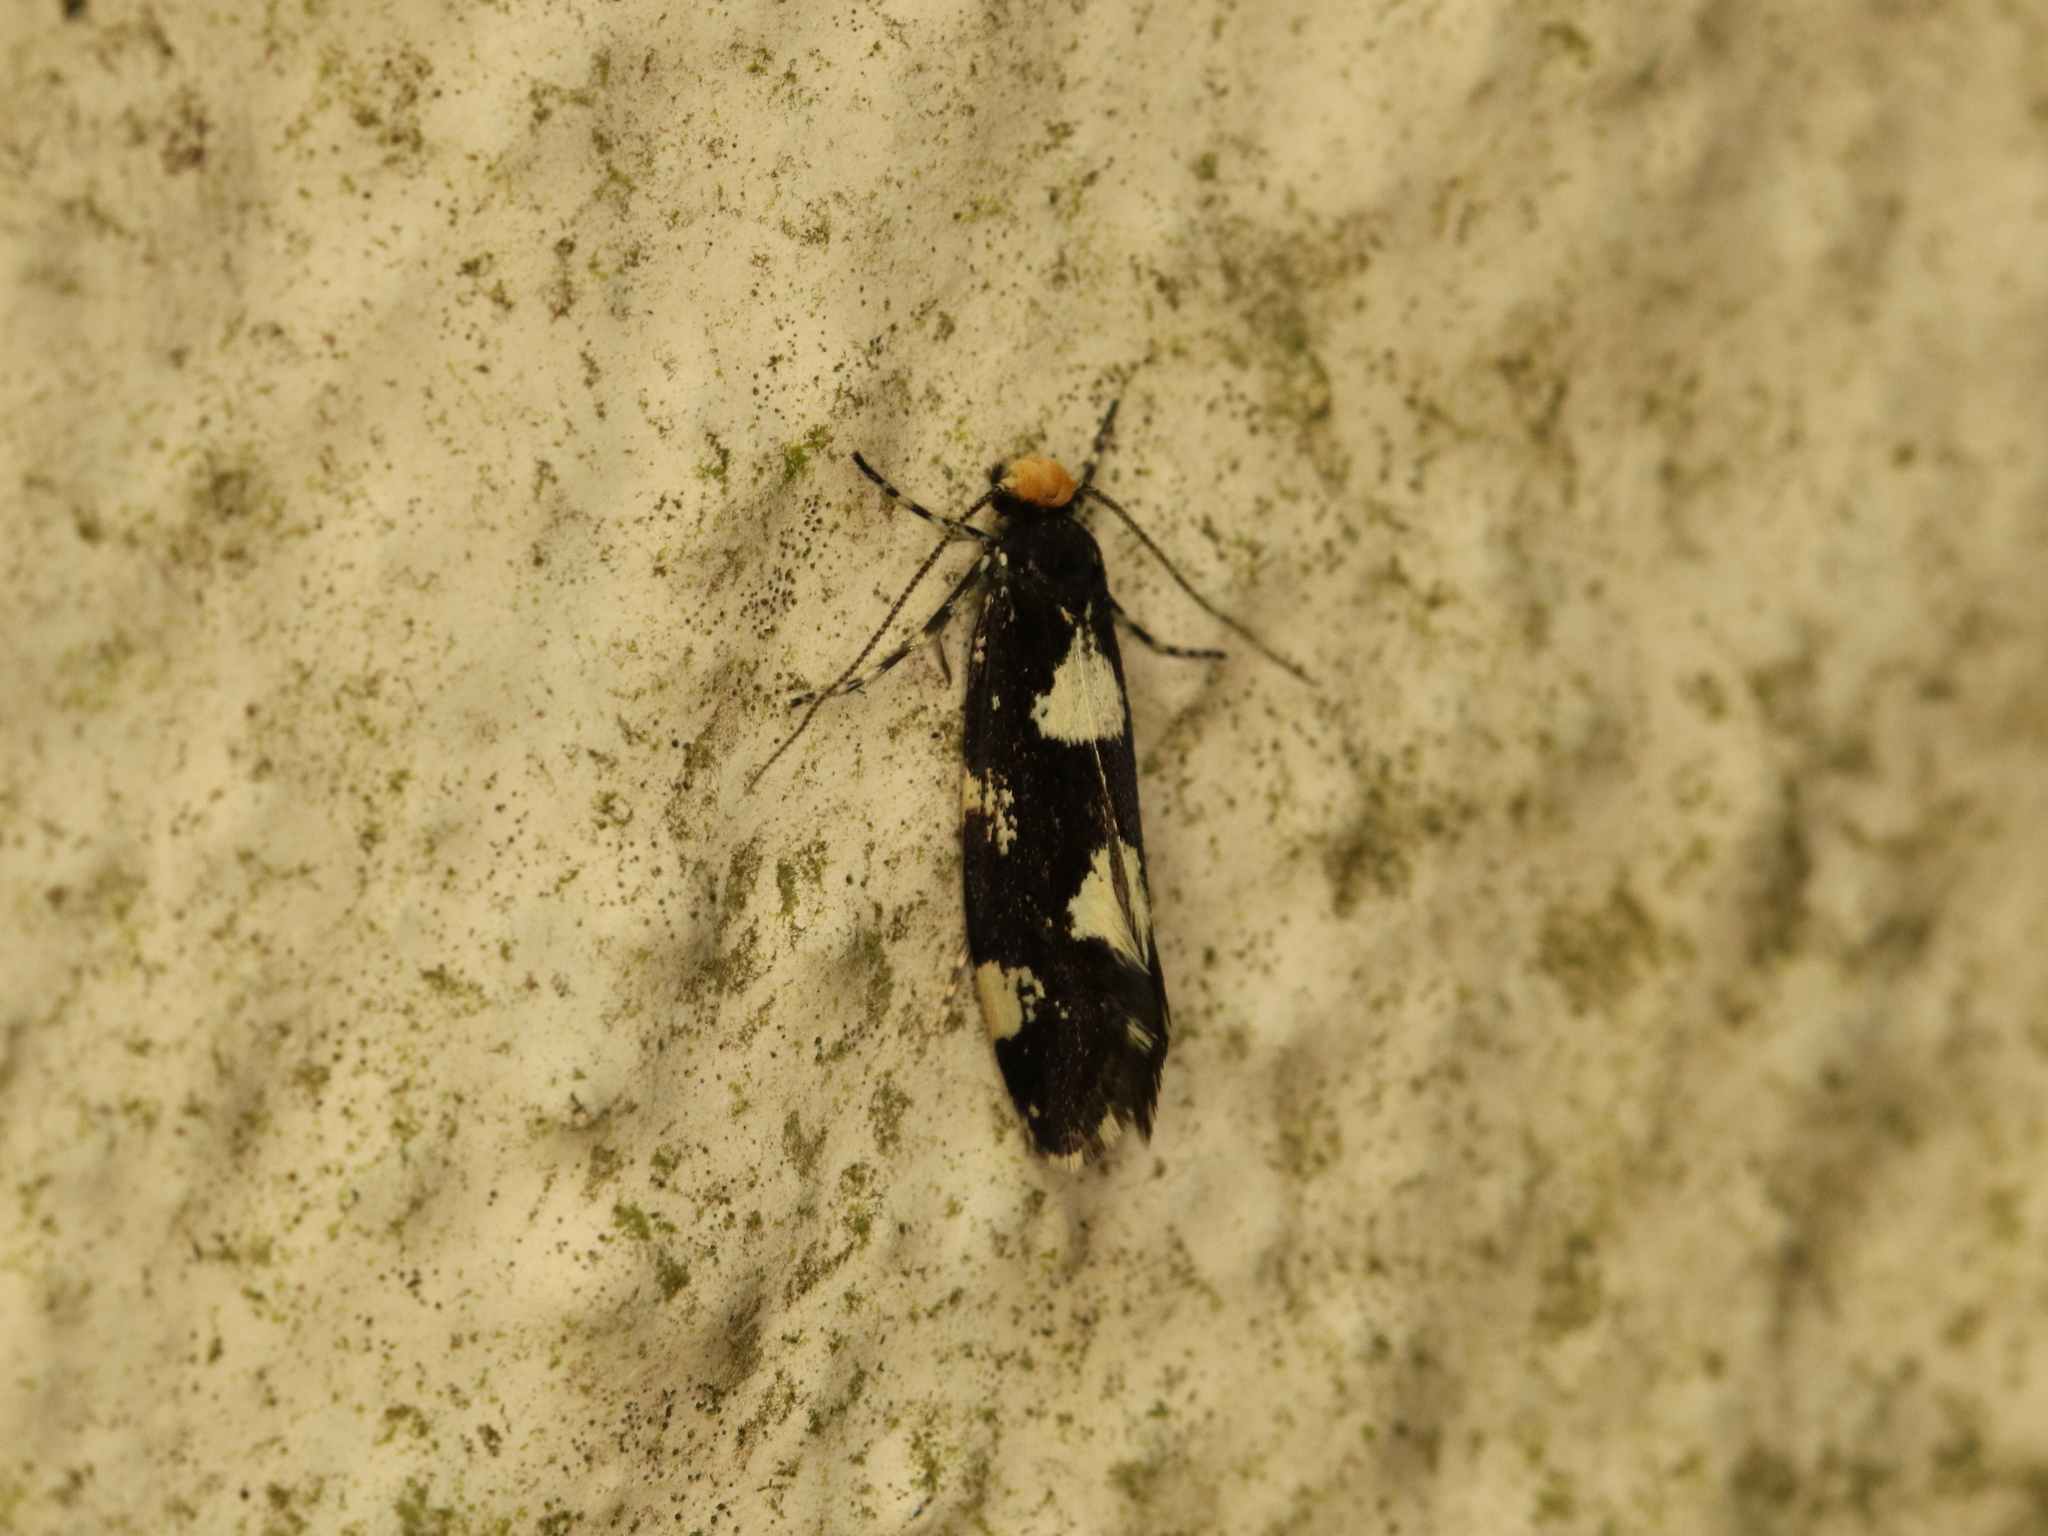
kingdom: Animalia
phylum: Arthropoda
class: Insecta
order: Lepidoptera
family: Tineidae
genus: Triaxomera
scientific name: Triaxomera fulvimitrella
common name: Four-spotted clothes
